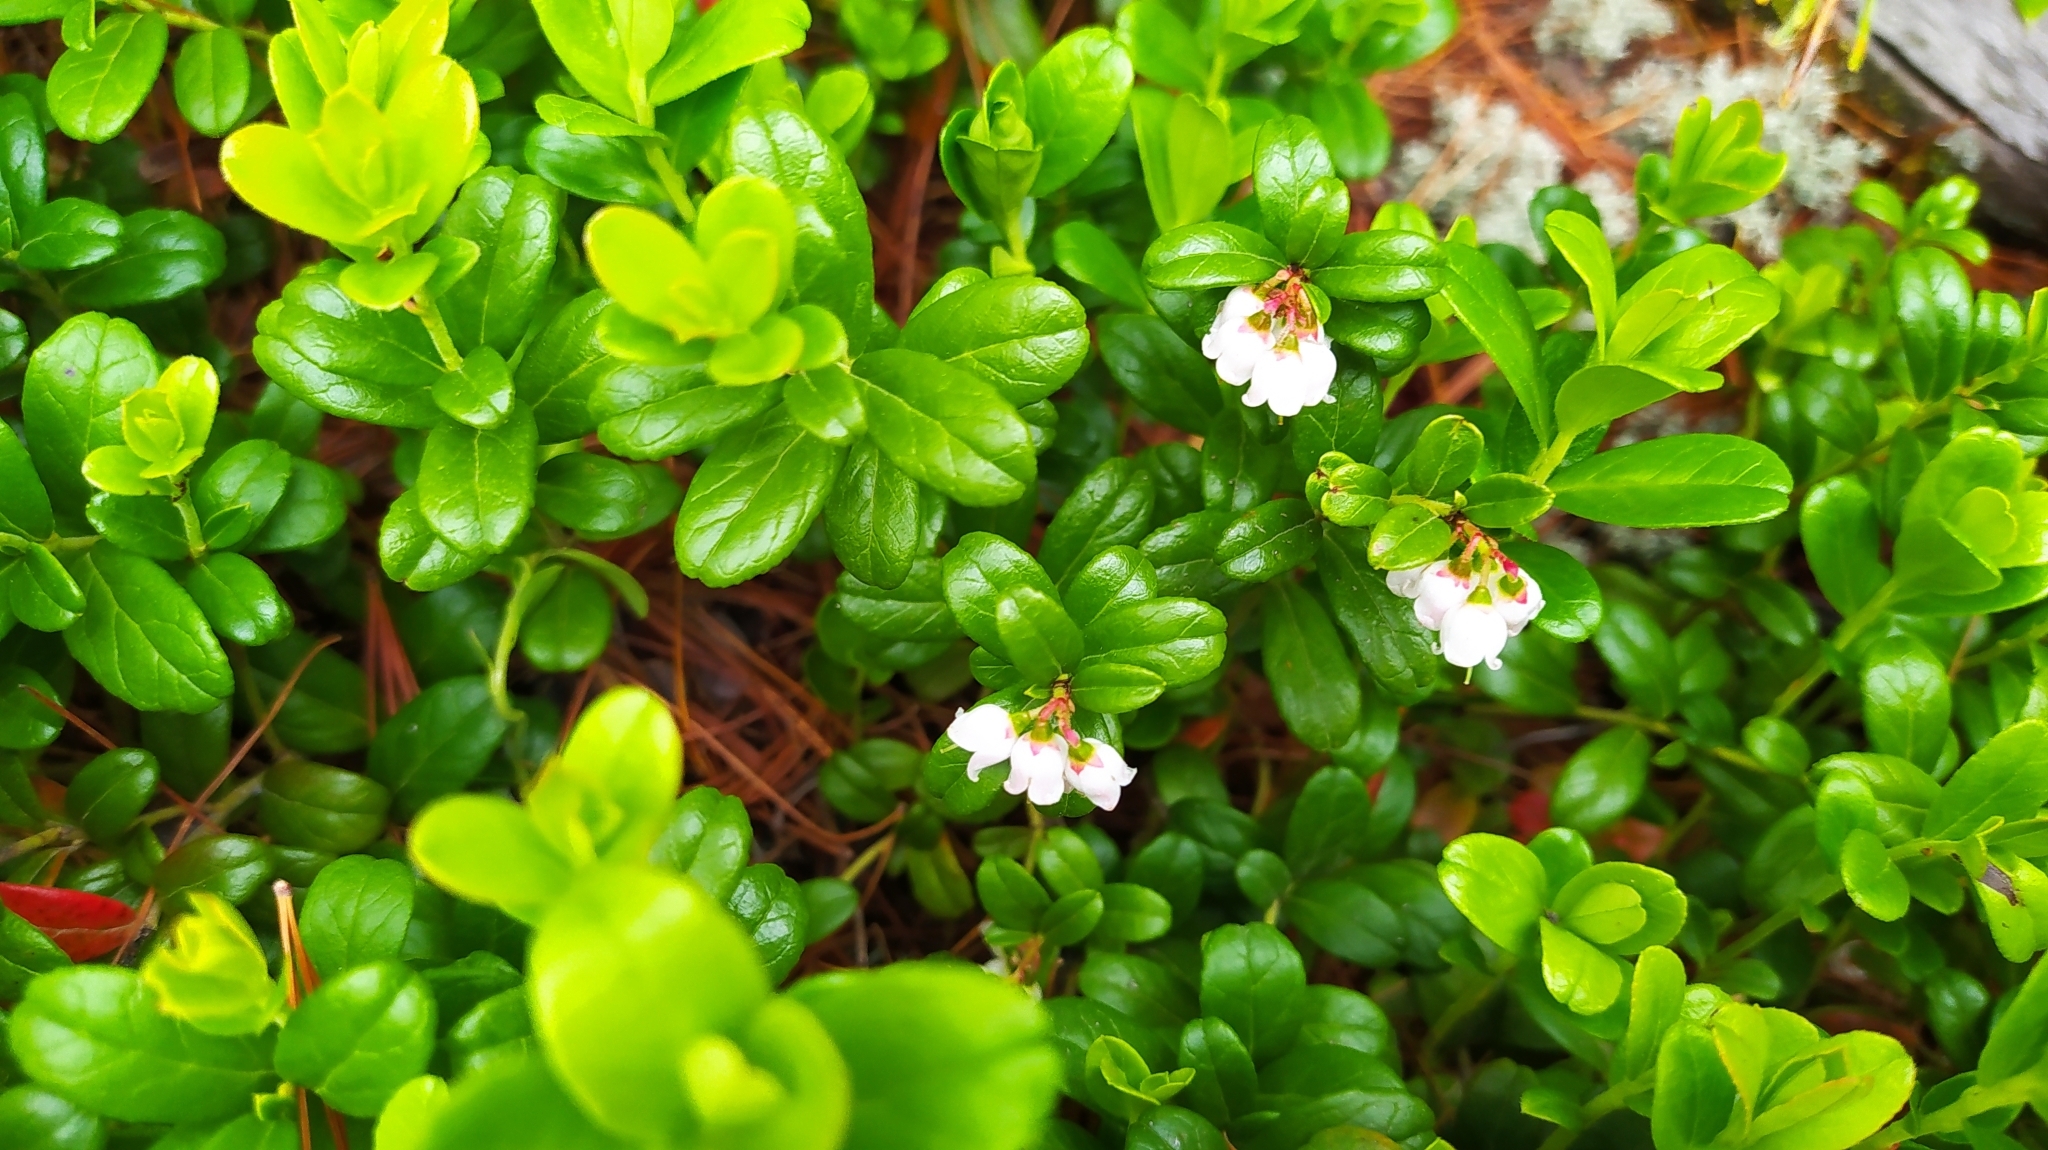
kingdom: Plantae
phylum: Tracheophyta
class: Magnoliopsida
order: Ericales
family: Ericaceae
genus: Vaccinium
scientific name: Vaccinium vitis-idaea
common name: Cowberry
